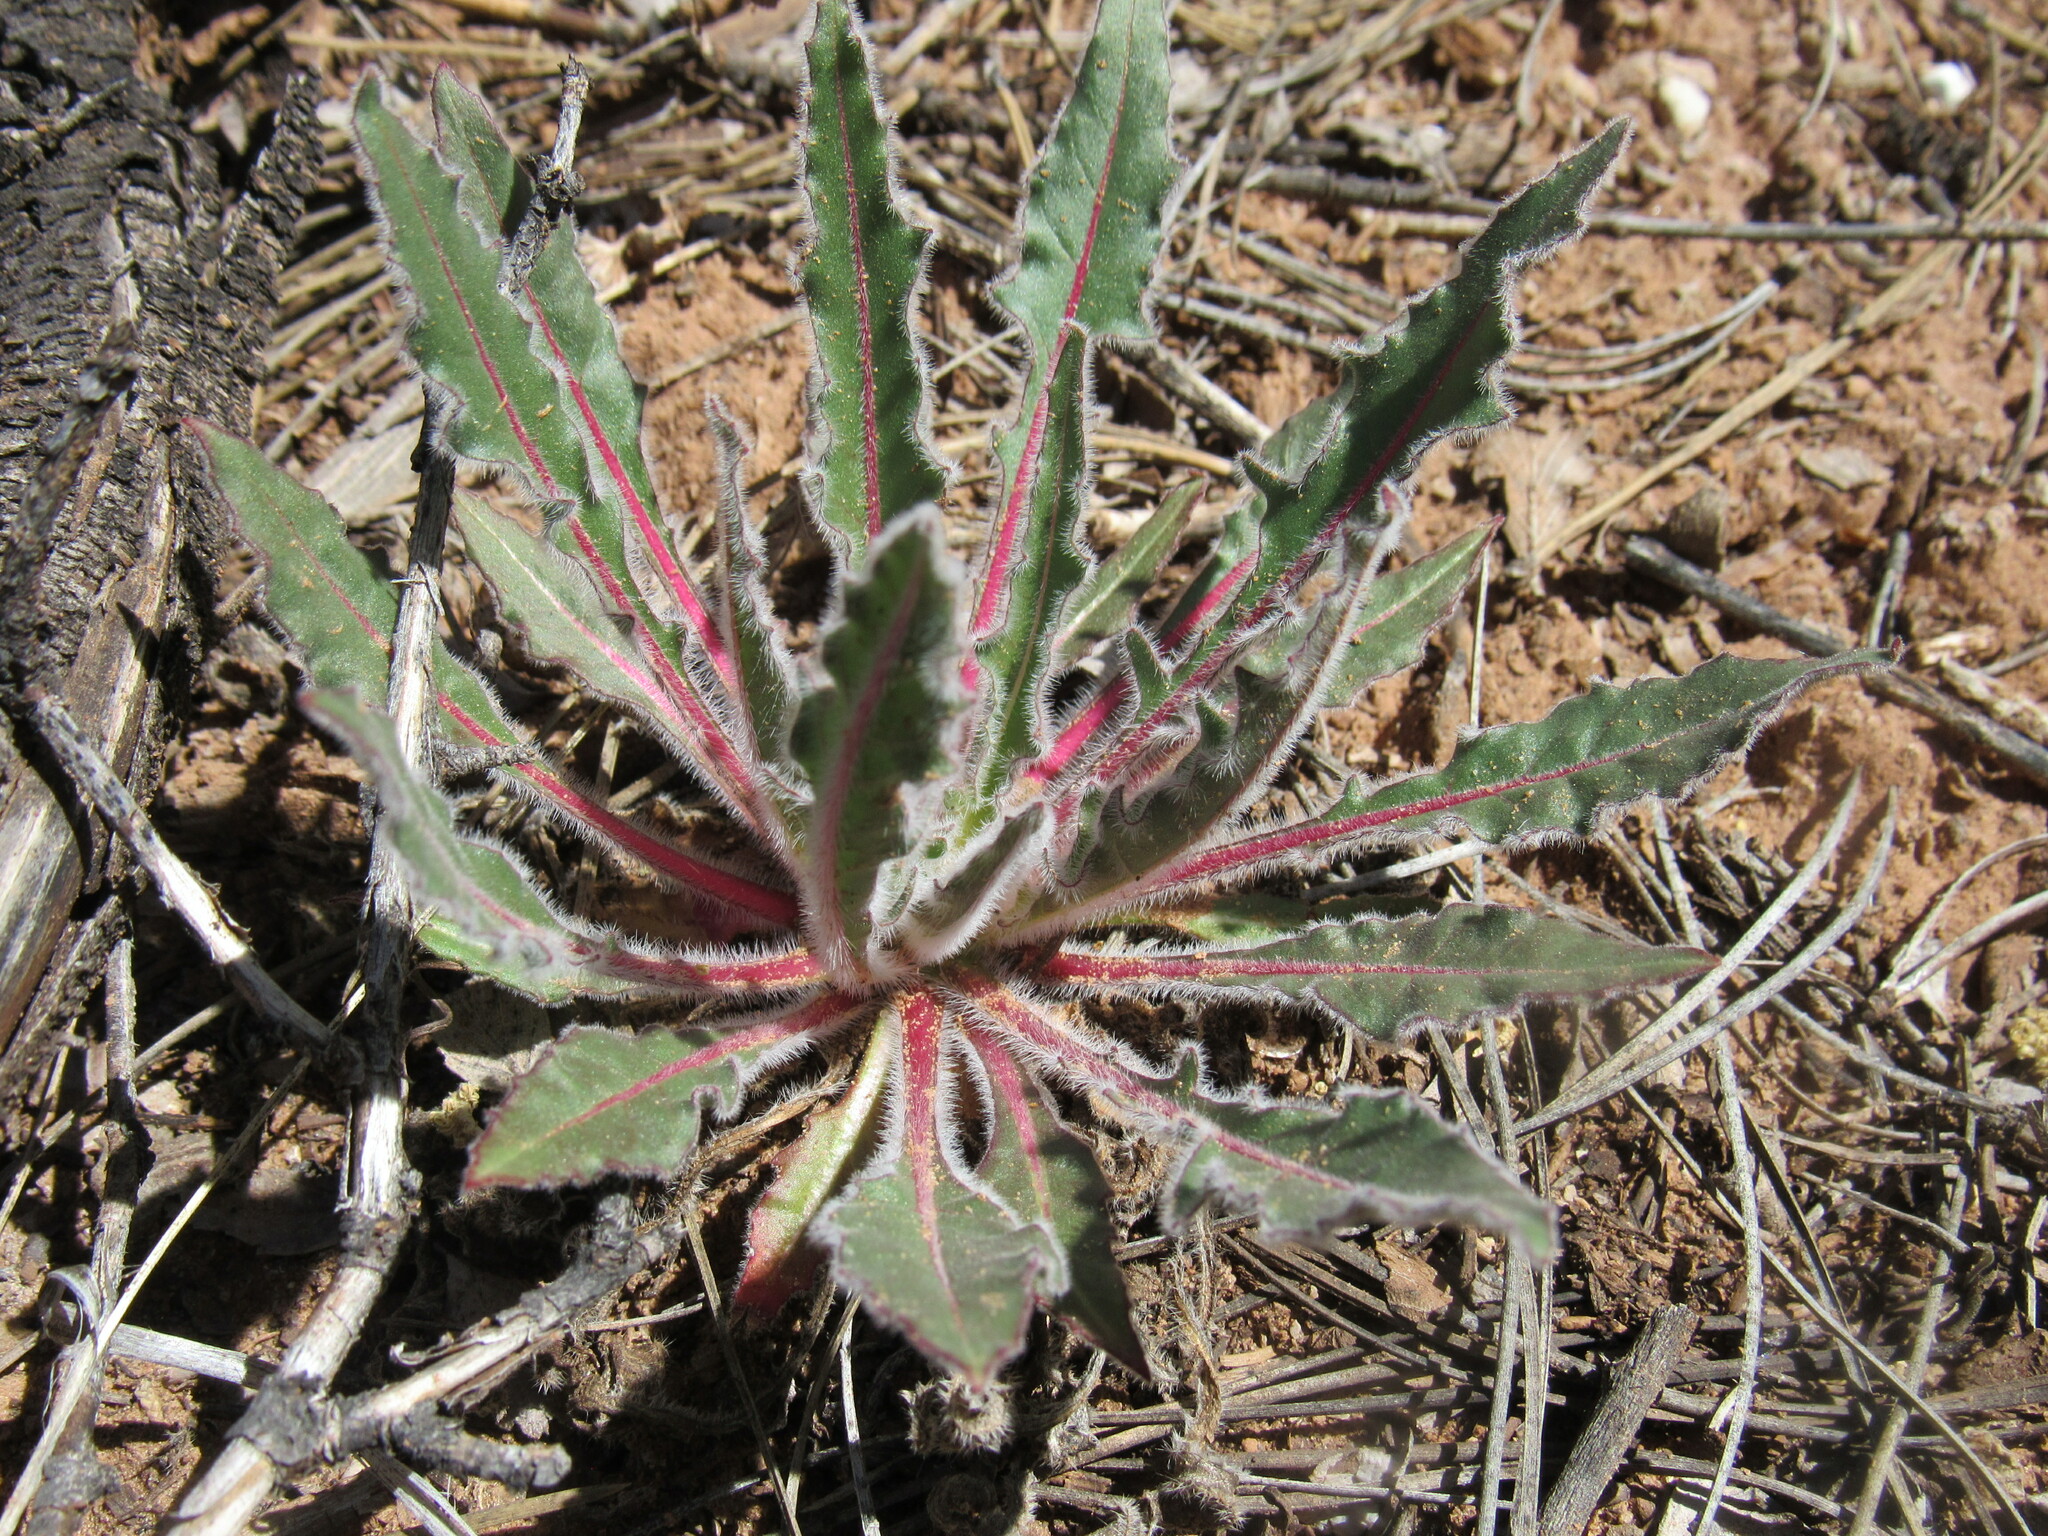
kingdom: Plantae
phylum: Tracheophyta
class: Magnoliopsida
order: Myrtales
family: Onagraceae
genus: Oenothera
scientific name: Oenothera cespitosa
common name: Tufted evening-primrose
